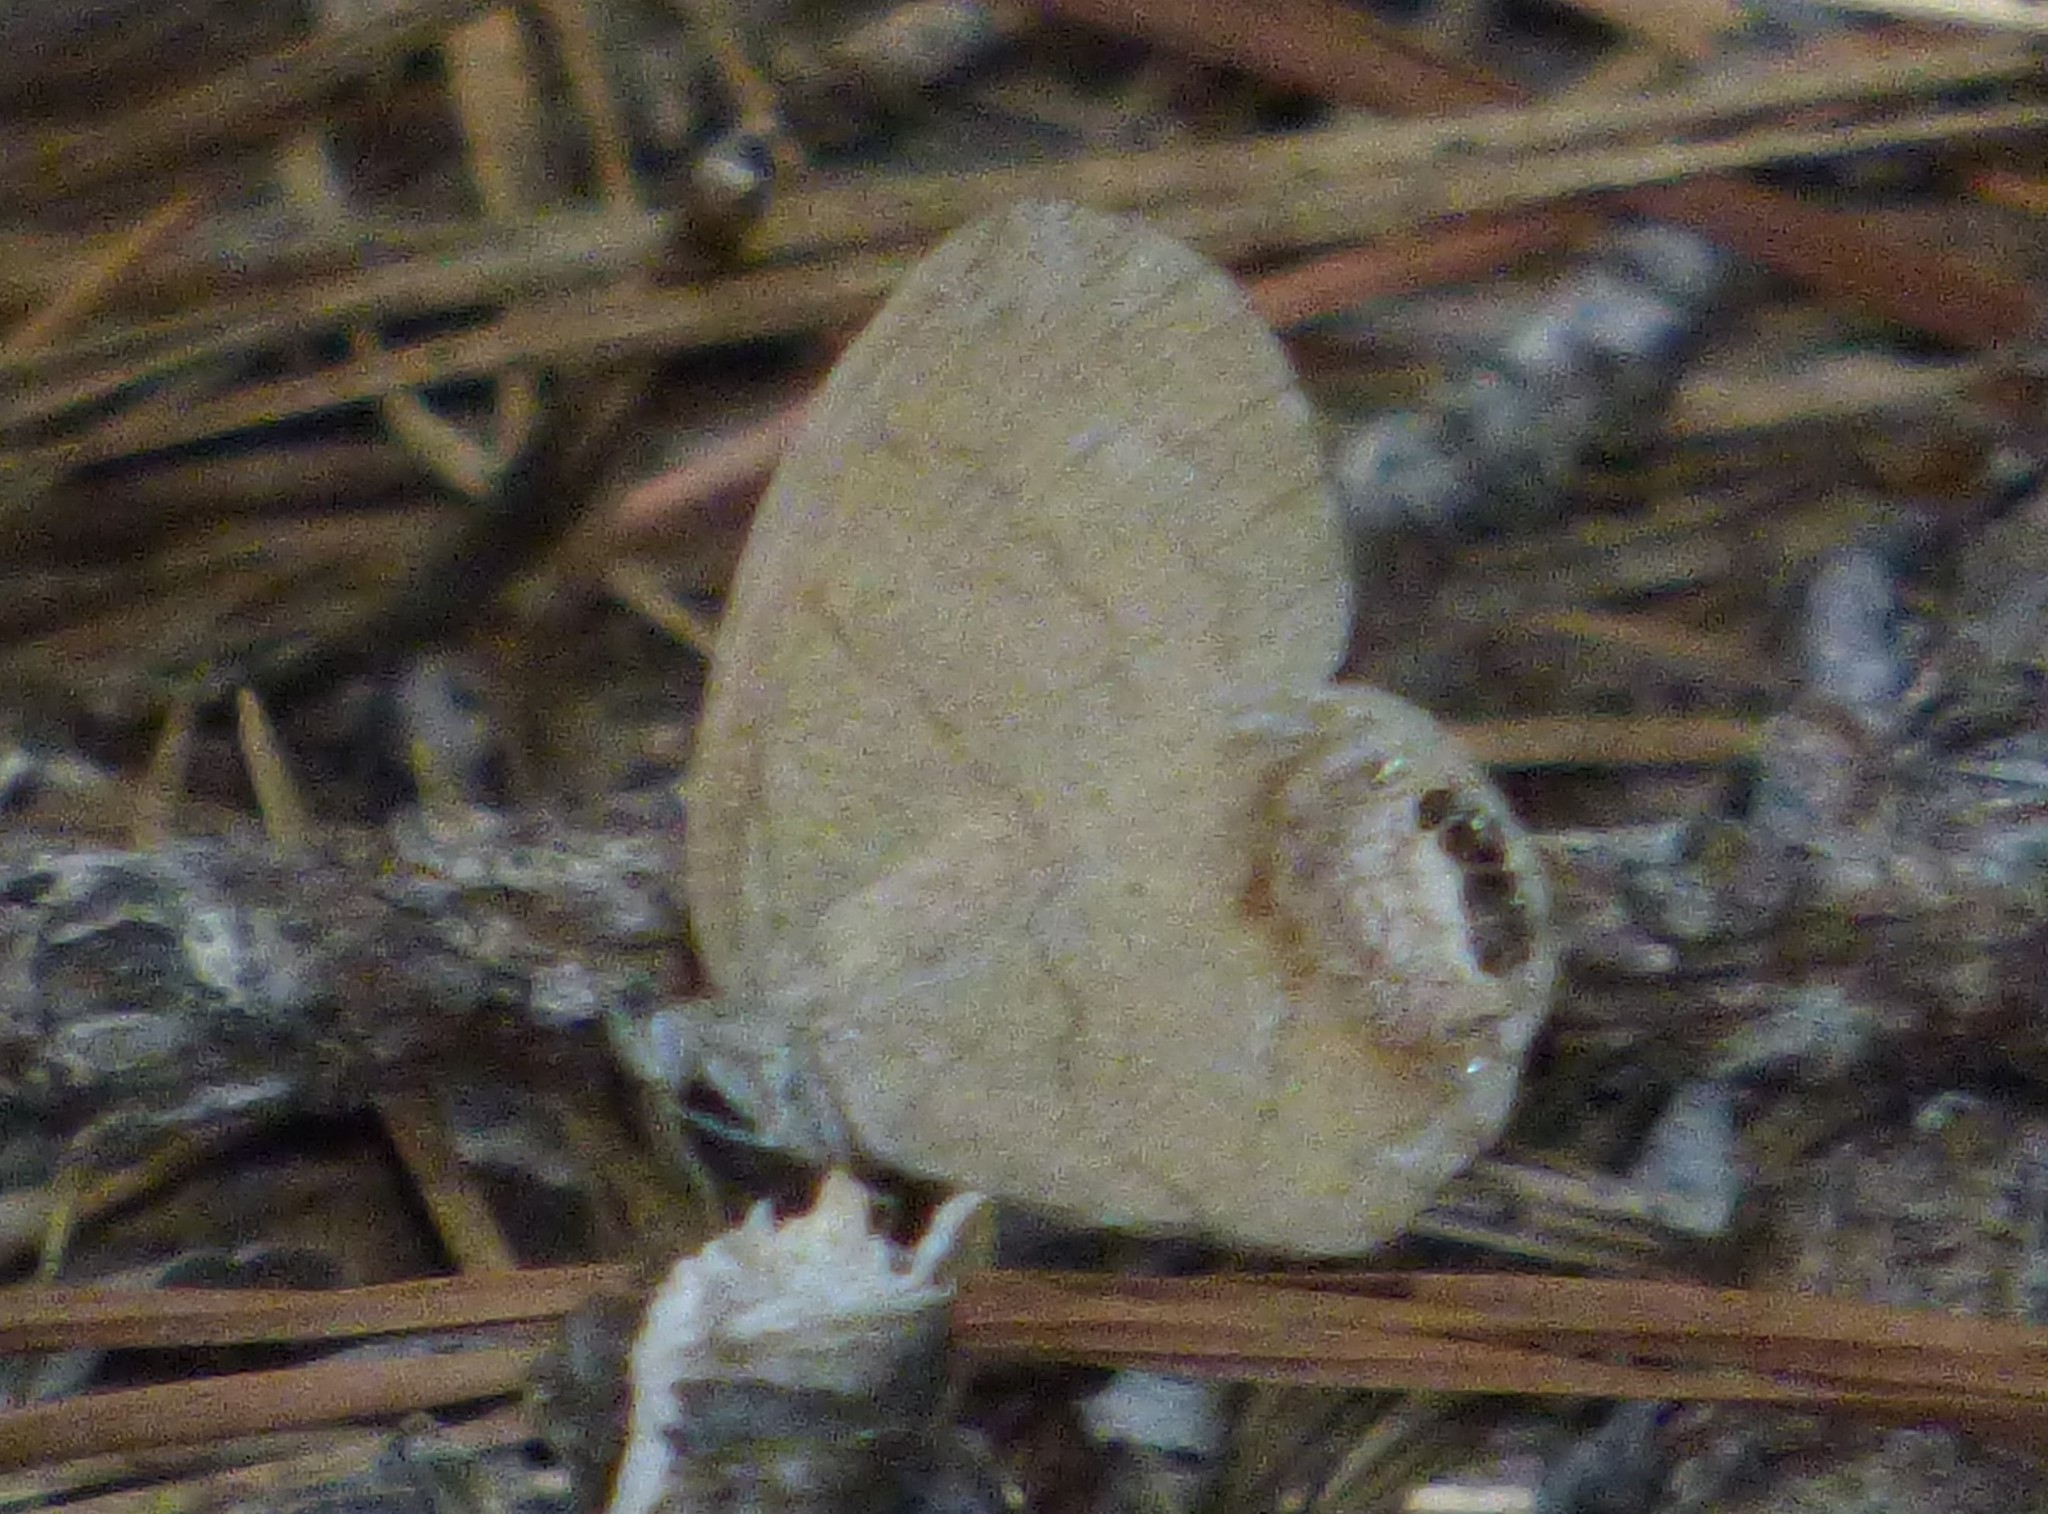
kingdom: Animalia
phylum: Arthropoda
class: Insecta
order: Lepidoptera
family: Nymphalidae
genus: Euptychia
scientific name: Euptychia cornelius
